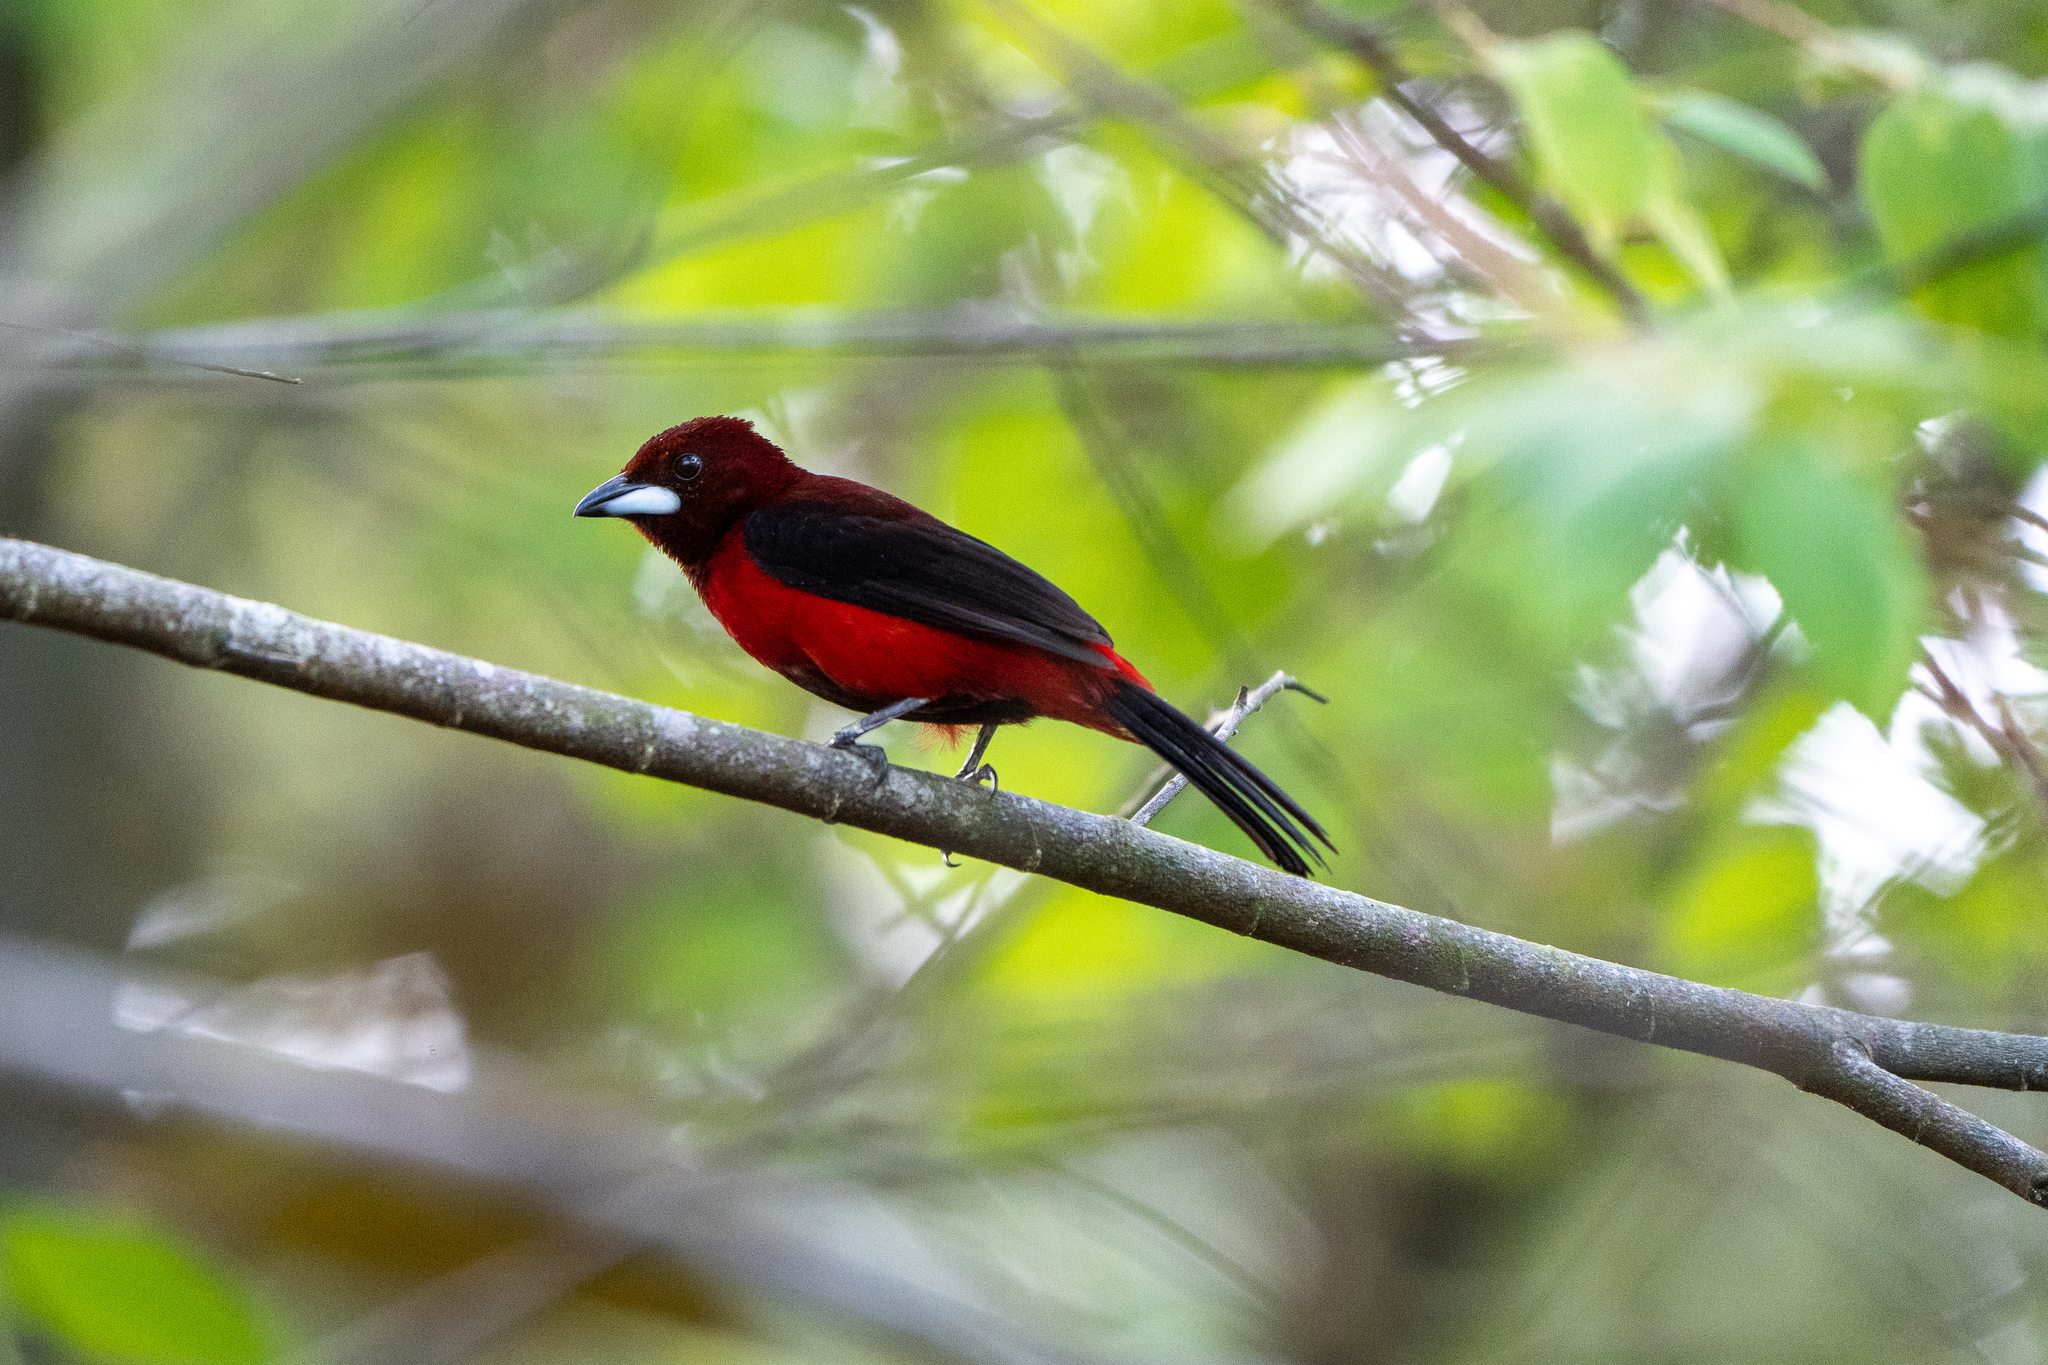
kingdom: Animalia
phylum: Chordata
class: Aves
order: Passeriformes
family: Thraupidae
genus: Ramphocelus
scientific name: Ramphocelus dimidiatus
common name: Crimson-backed tanager
